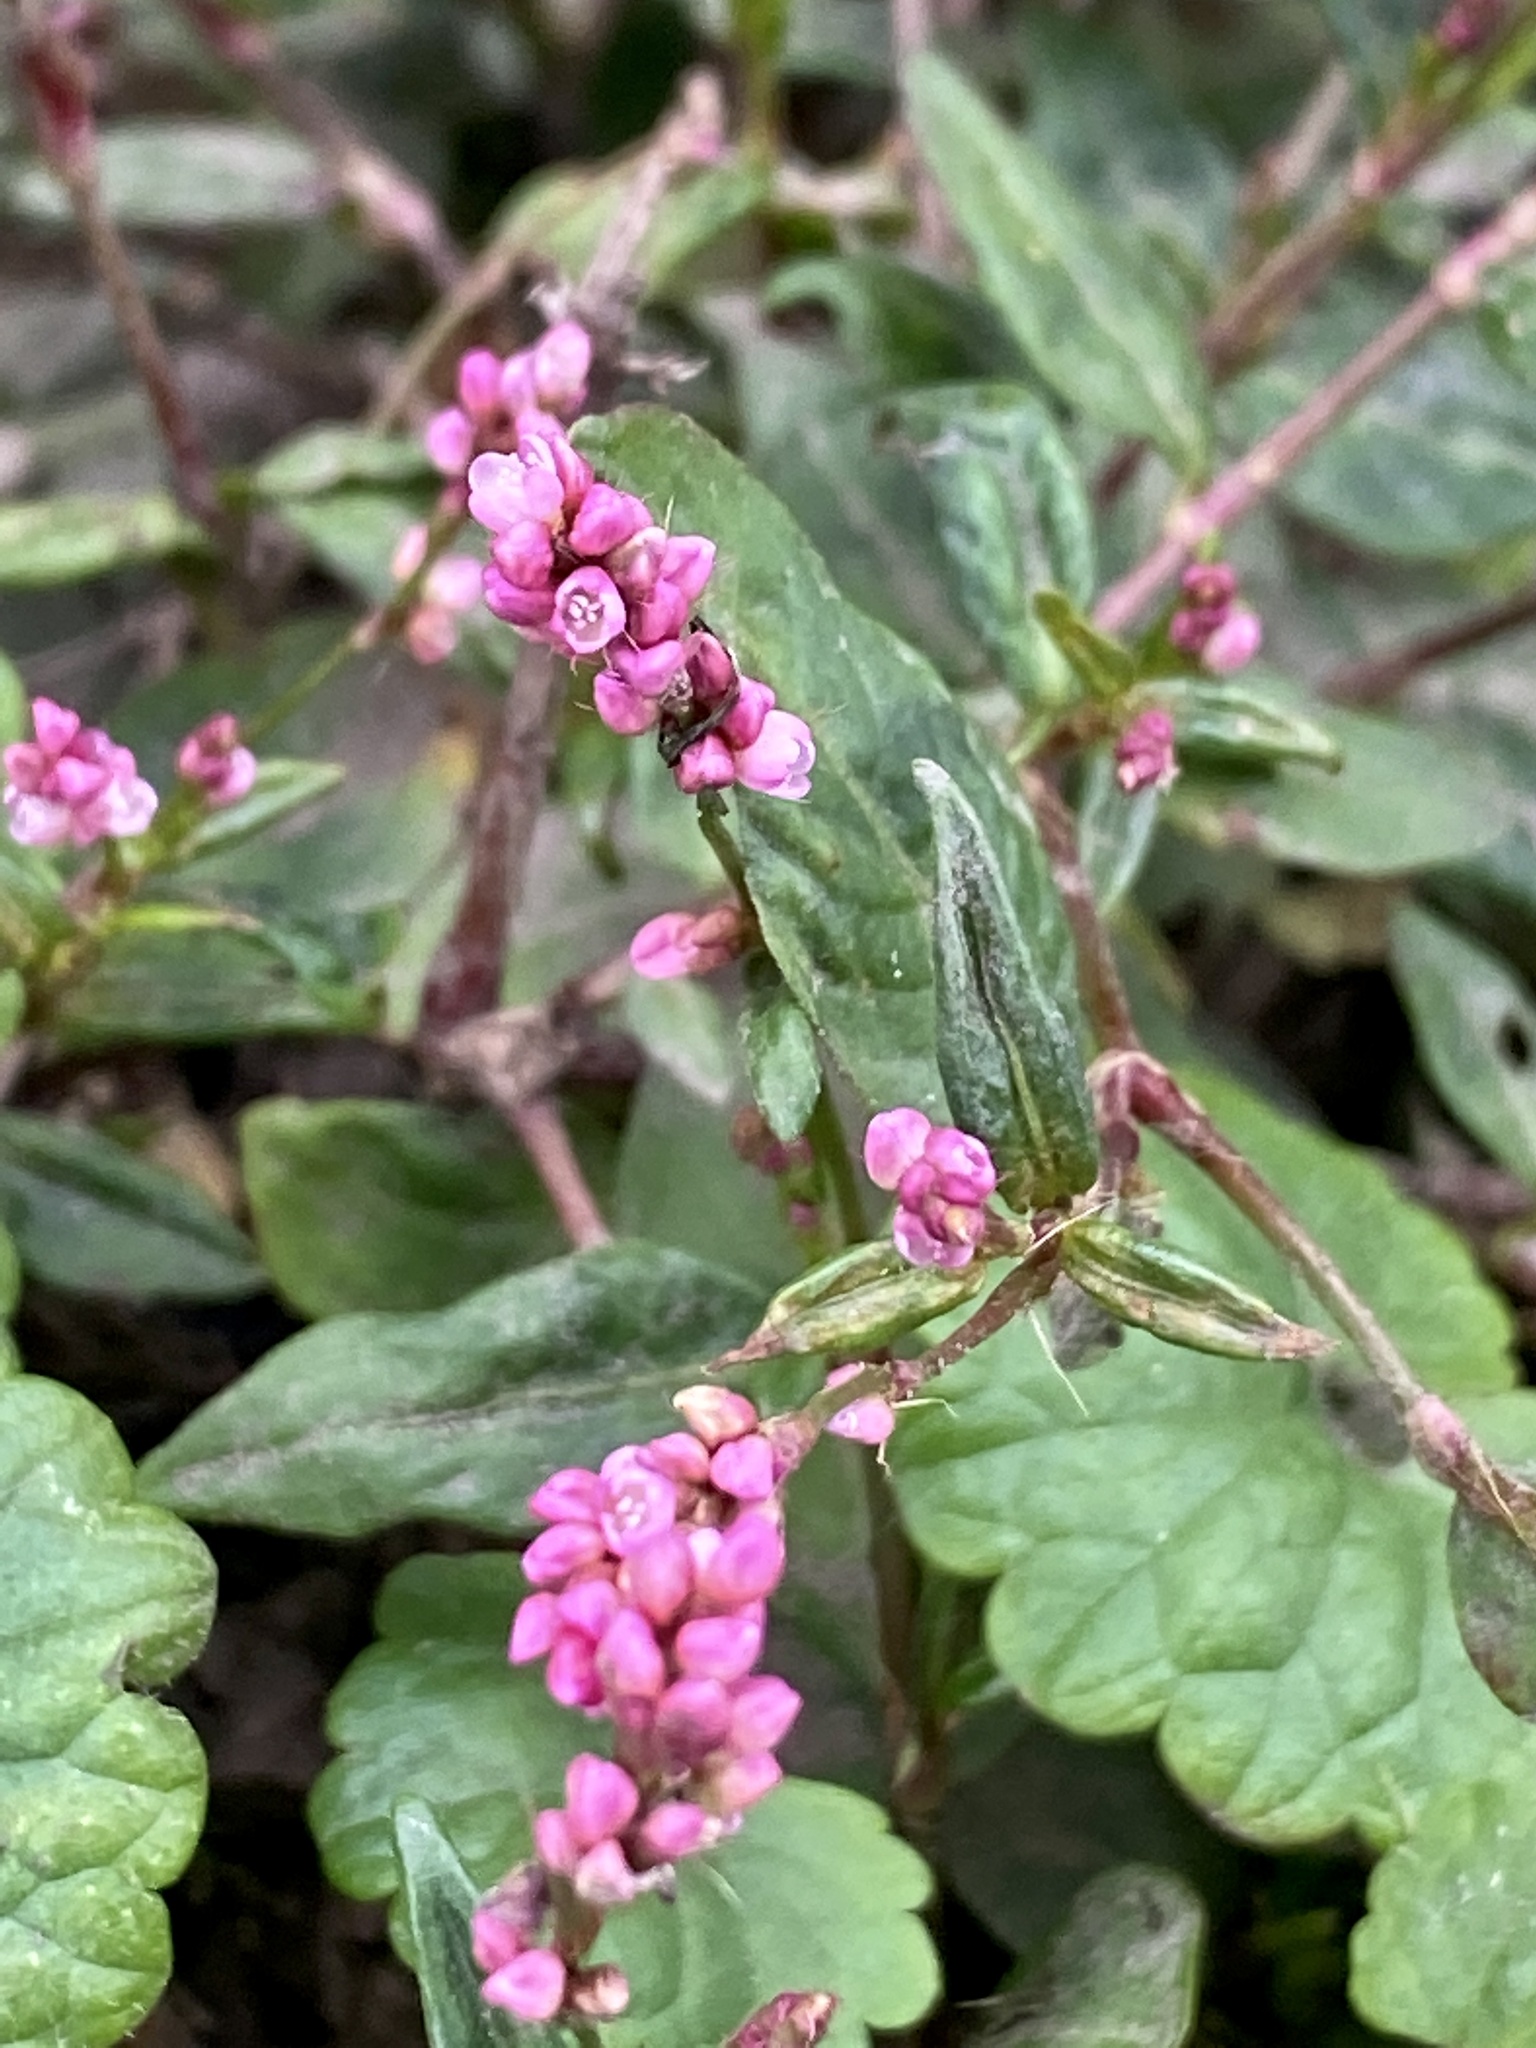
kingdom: Plantae
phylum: Tracheophyta
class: Magnoliopsida
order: Caryophyllales
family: Polygonaceae
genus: Persicaria
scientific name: Persicaria longiseta
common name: Bristly lady's-thumb
